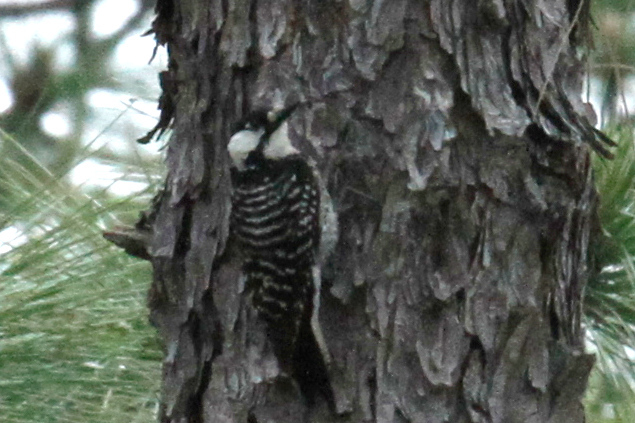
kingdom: Animalia
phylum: Chordata
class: Aves
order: Piciformes
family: Picidae
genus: Leuconotopicus
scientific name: Leuconotopicus borealis
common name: Red-cockaded woodpecker
